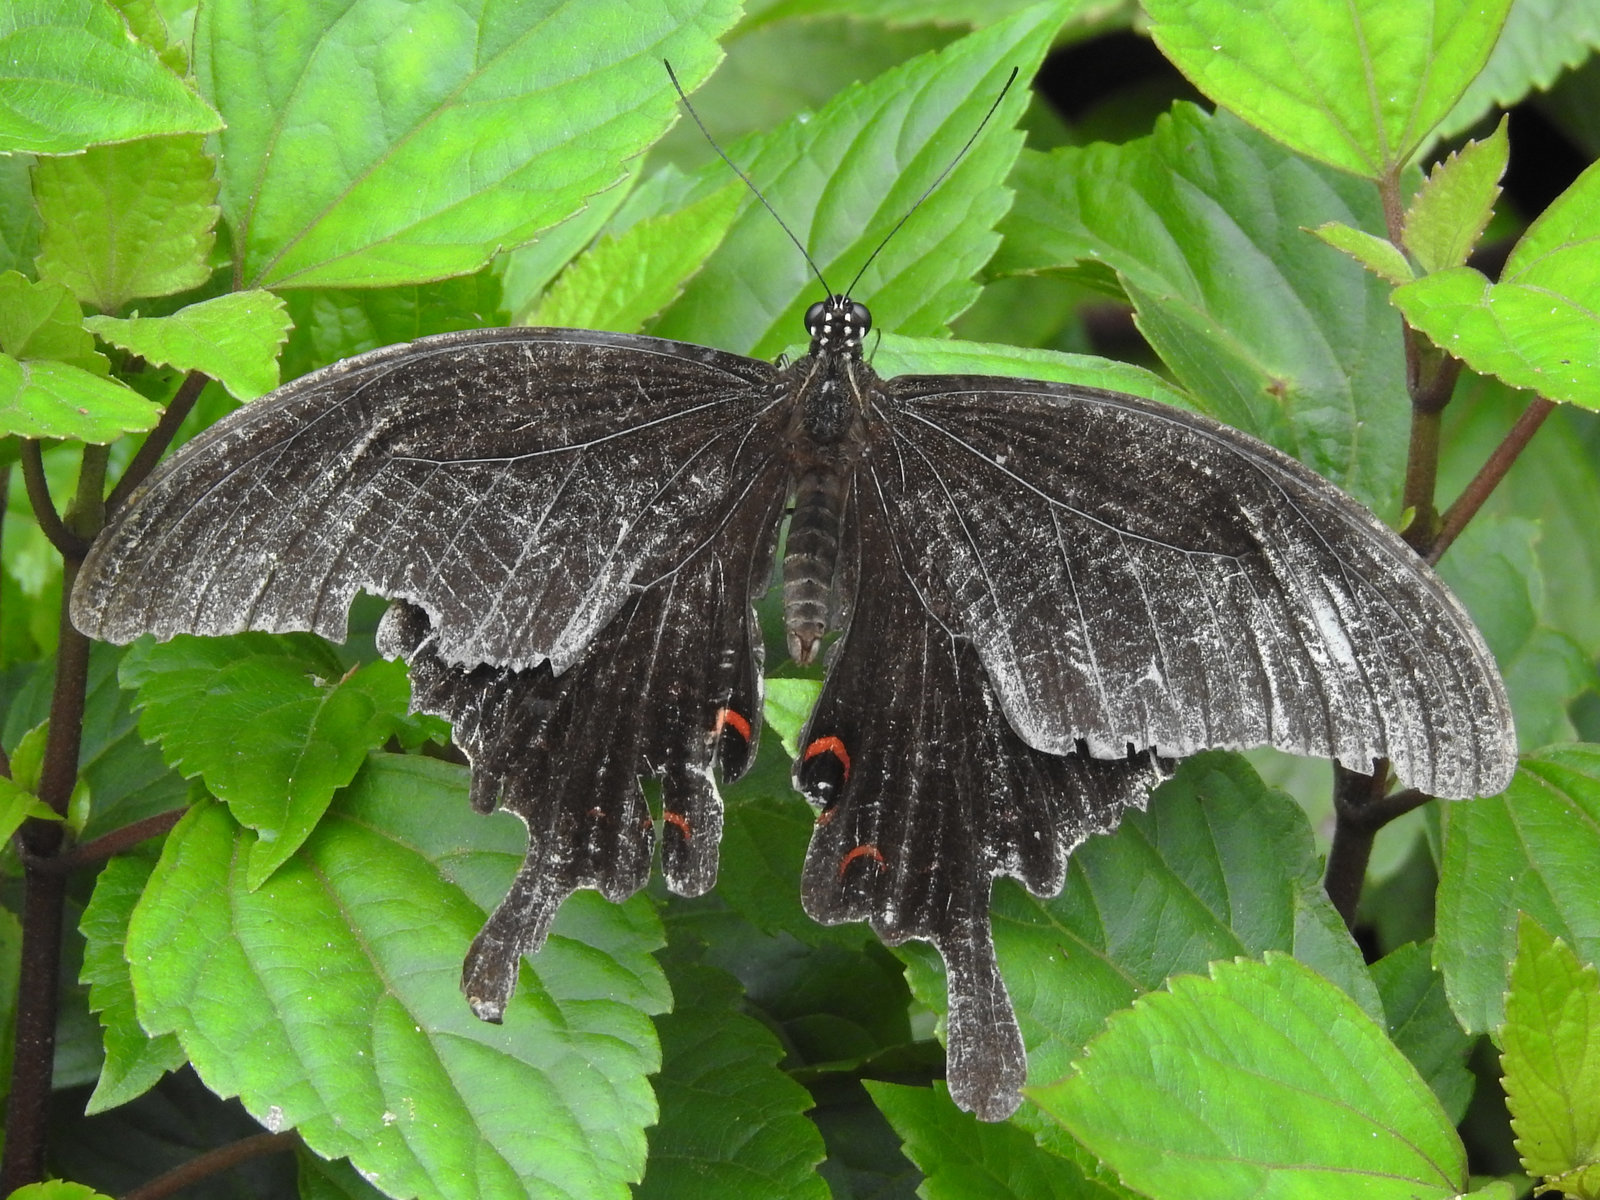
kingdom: Animalia
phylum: Arthropoda
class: Insecta
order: Lepidoptera
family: Papilionidae
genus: Papilio
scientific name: Papilio helenus
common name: Red helen
